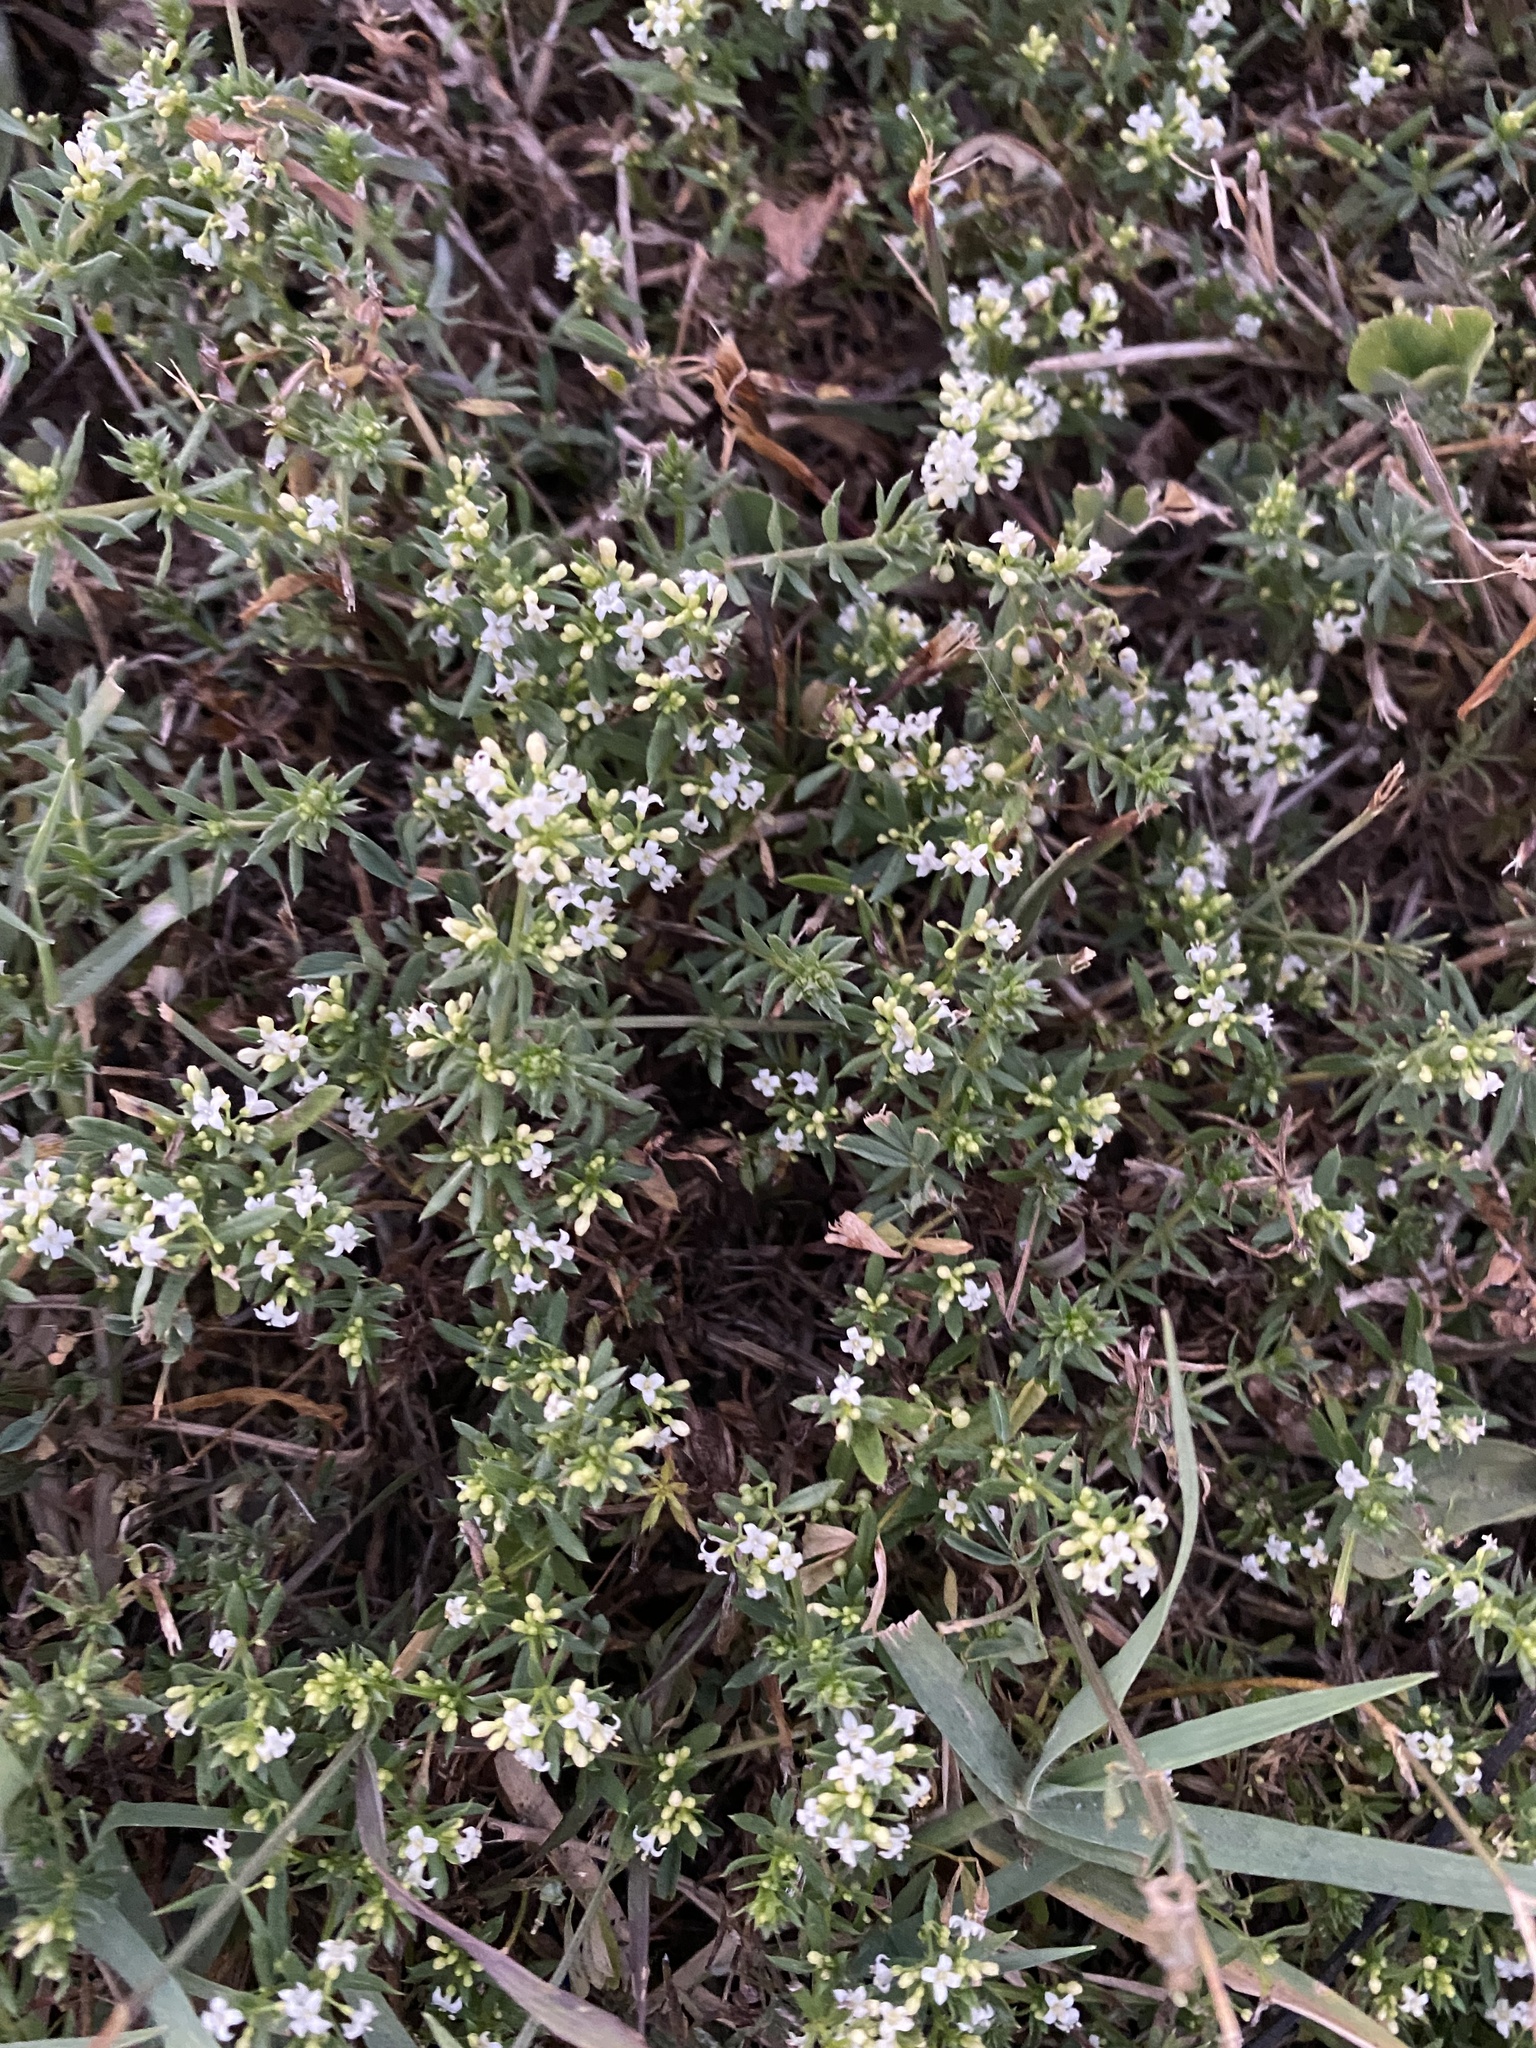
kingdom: Plantae
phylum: Tracheophyta
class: Magnoliopsida
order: Gentianales
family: Rubiaceae
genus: Galium
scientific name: Galium humifusum
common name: Spreading bedstraw
